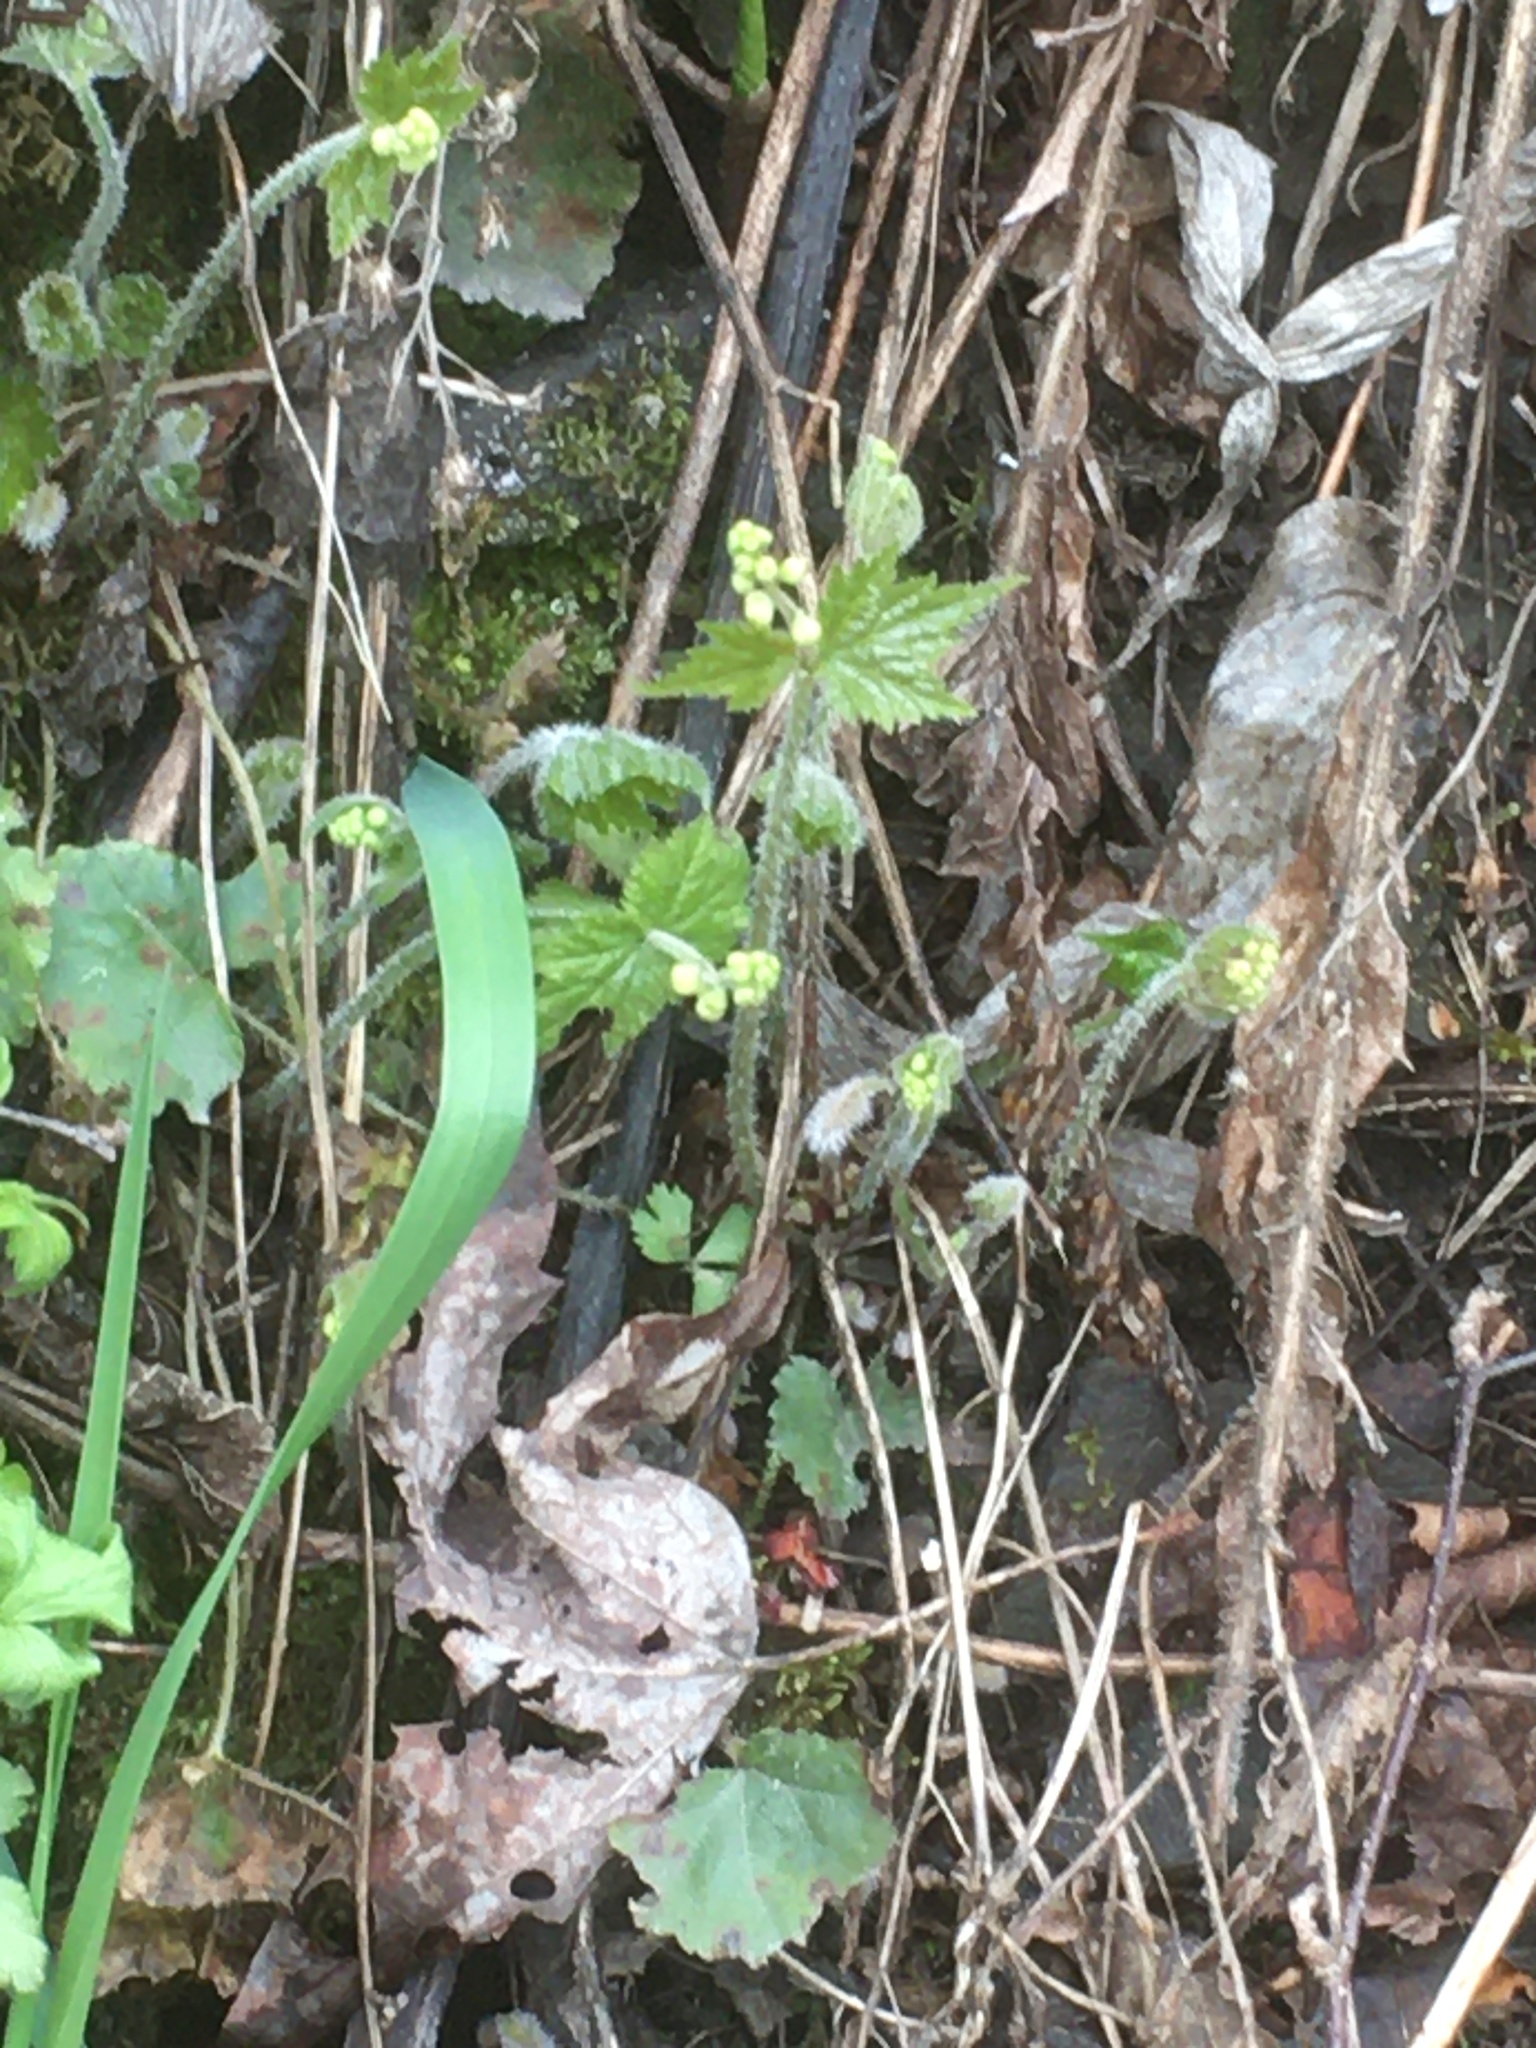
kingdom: Plantae
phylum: Tracheophyta
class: Magnoliopsida
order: Saxifragales
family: Saxifragaceae
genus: Mitella
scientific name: Mitella diphylla
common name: Coolwort
